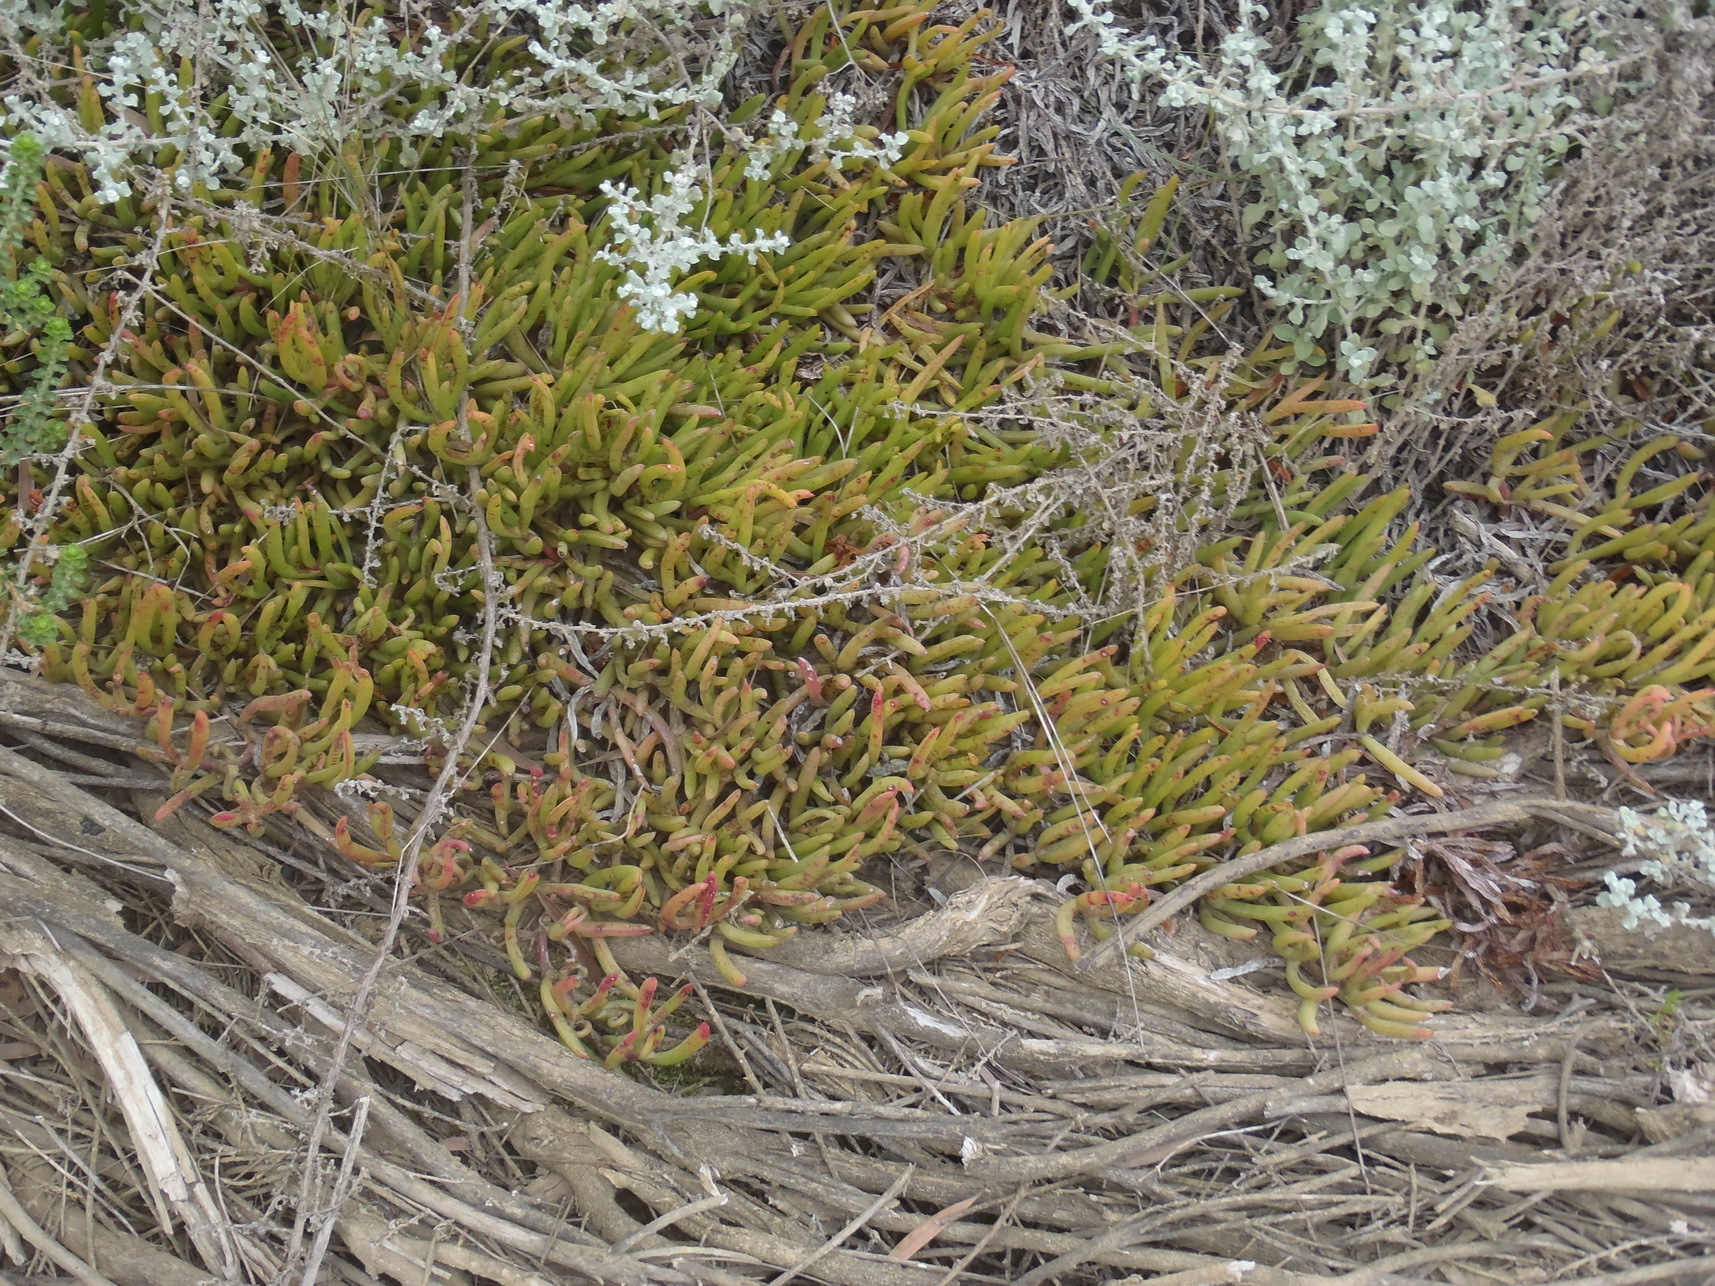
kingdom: Plantae
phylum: Tracheophyta
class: Magnoliopsida
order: Caryophyllales
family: Aizoaceae
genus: Jordaaniella
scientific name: Jordaaniella maritima
